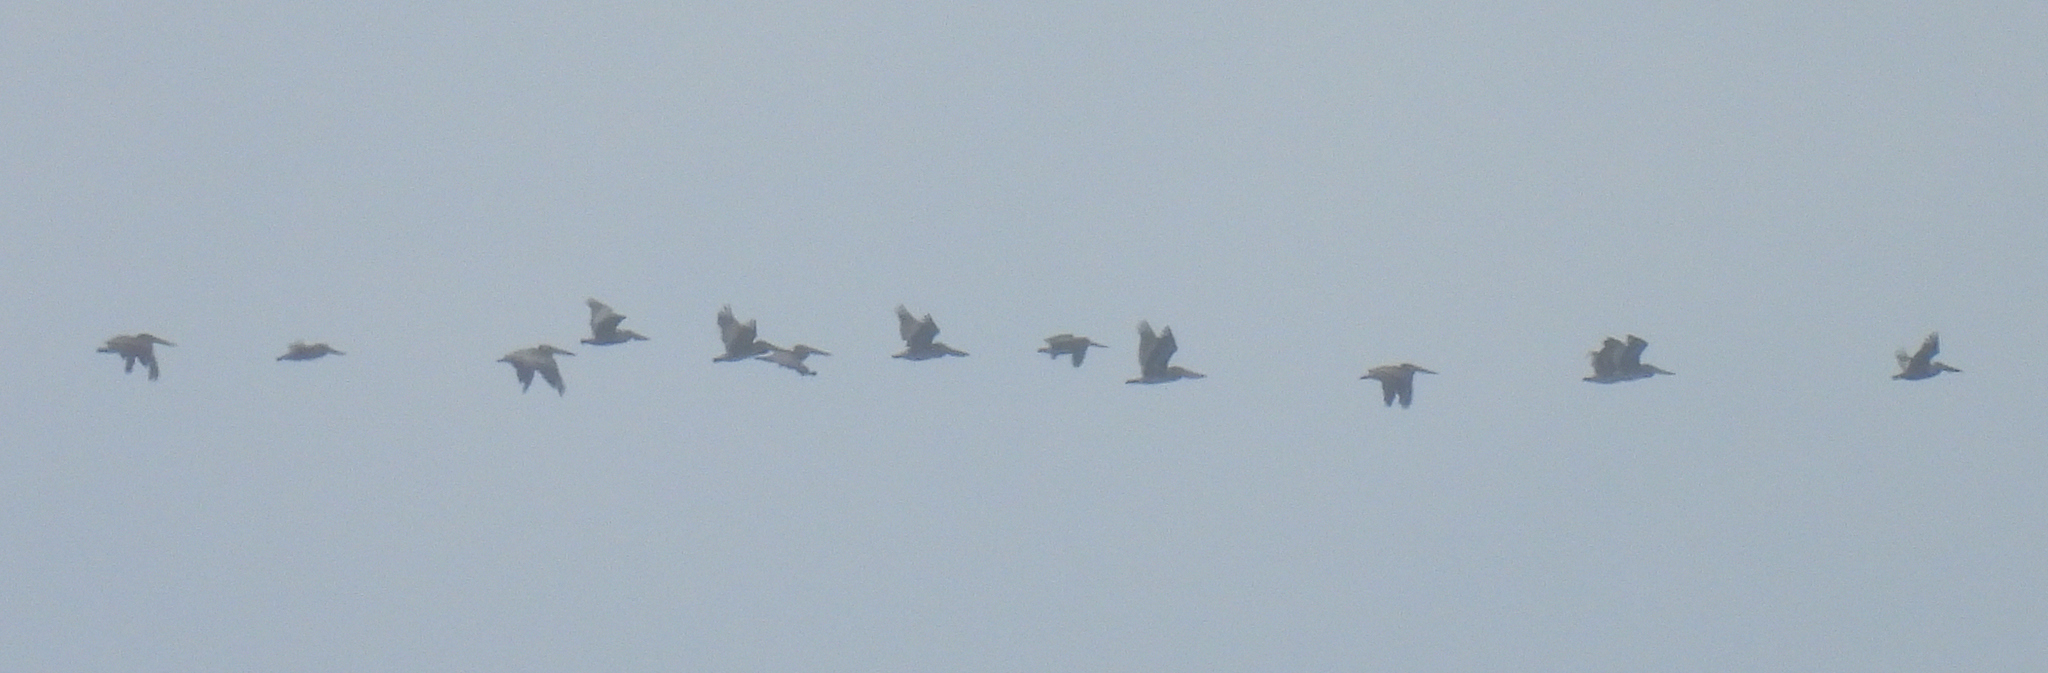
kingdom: Animalia
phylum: Chordata
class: Aves
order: Pelecaniformes
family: Pelecanidae
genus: Pelecanus
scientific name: Pelecanus occidentalis
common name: Brown pelican
